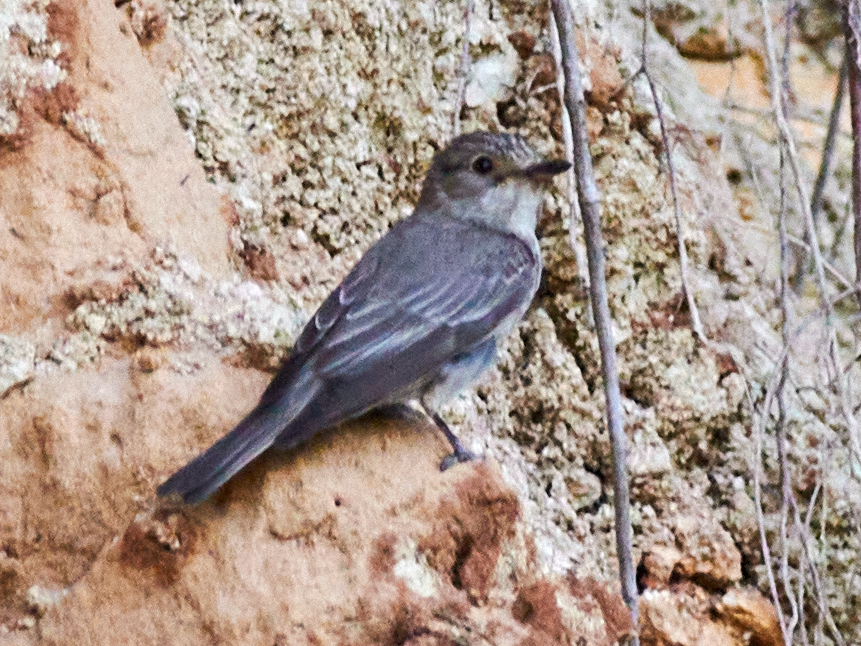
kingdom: Animalia
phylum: Chordata
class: Aves
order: Passeriformes
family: Muscicapidae
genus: Muscicapa
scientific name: Muscicapa striata
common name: Spotted flycatcher
